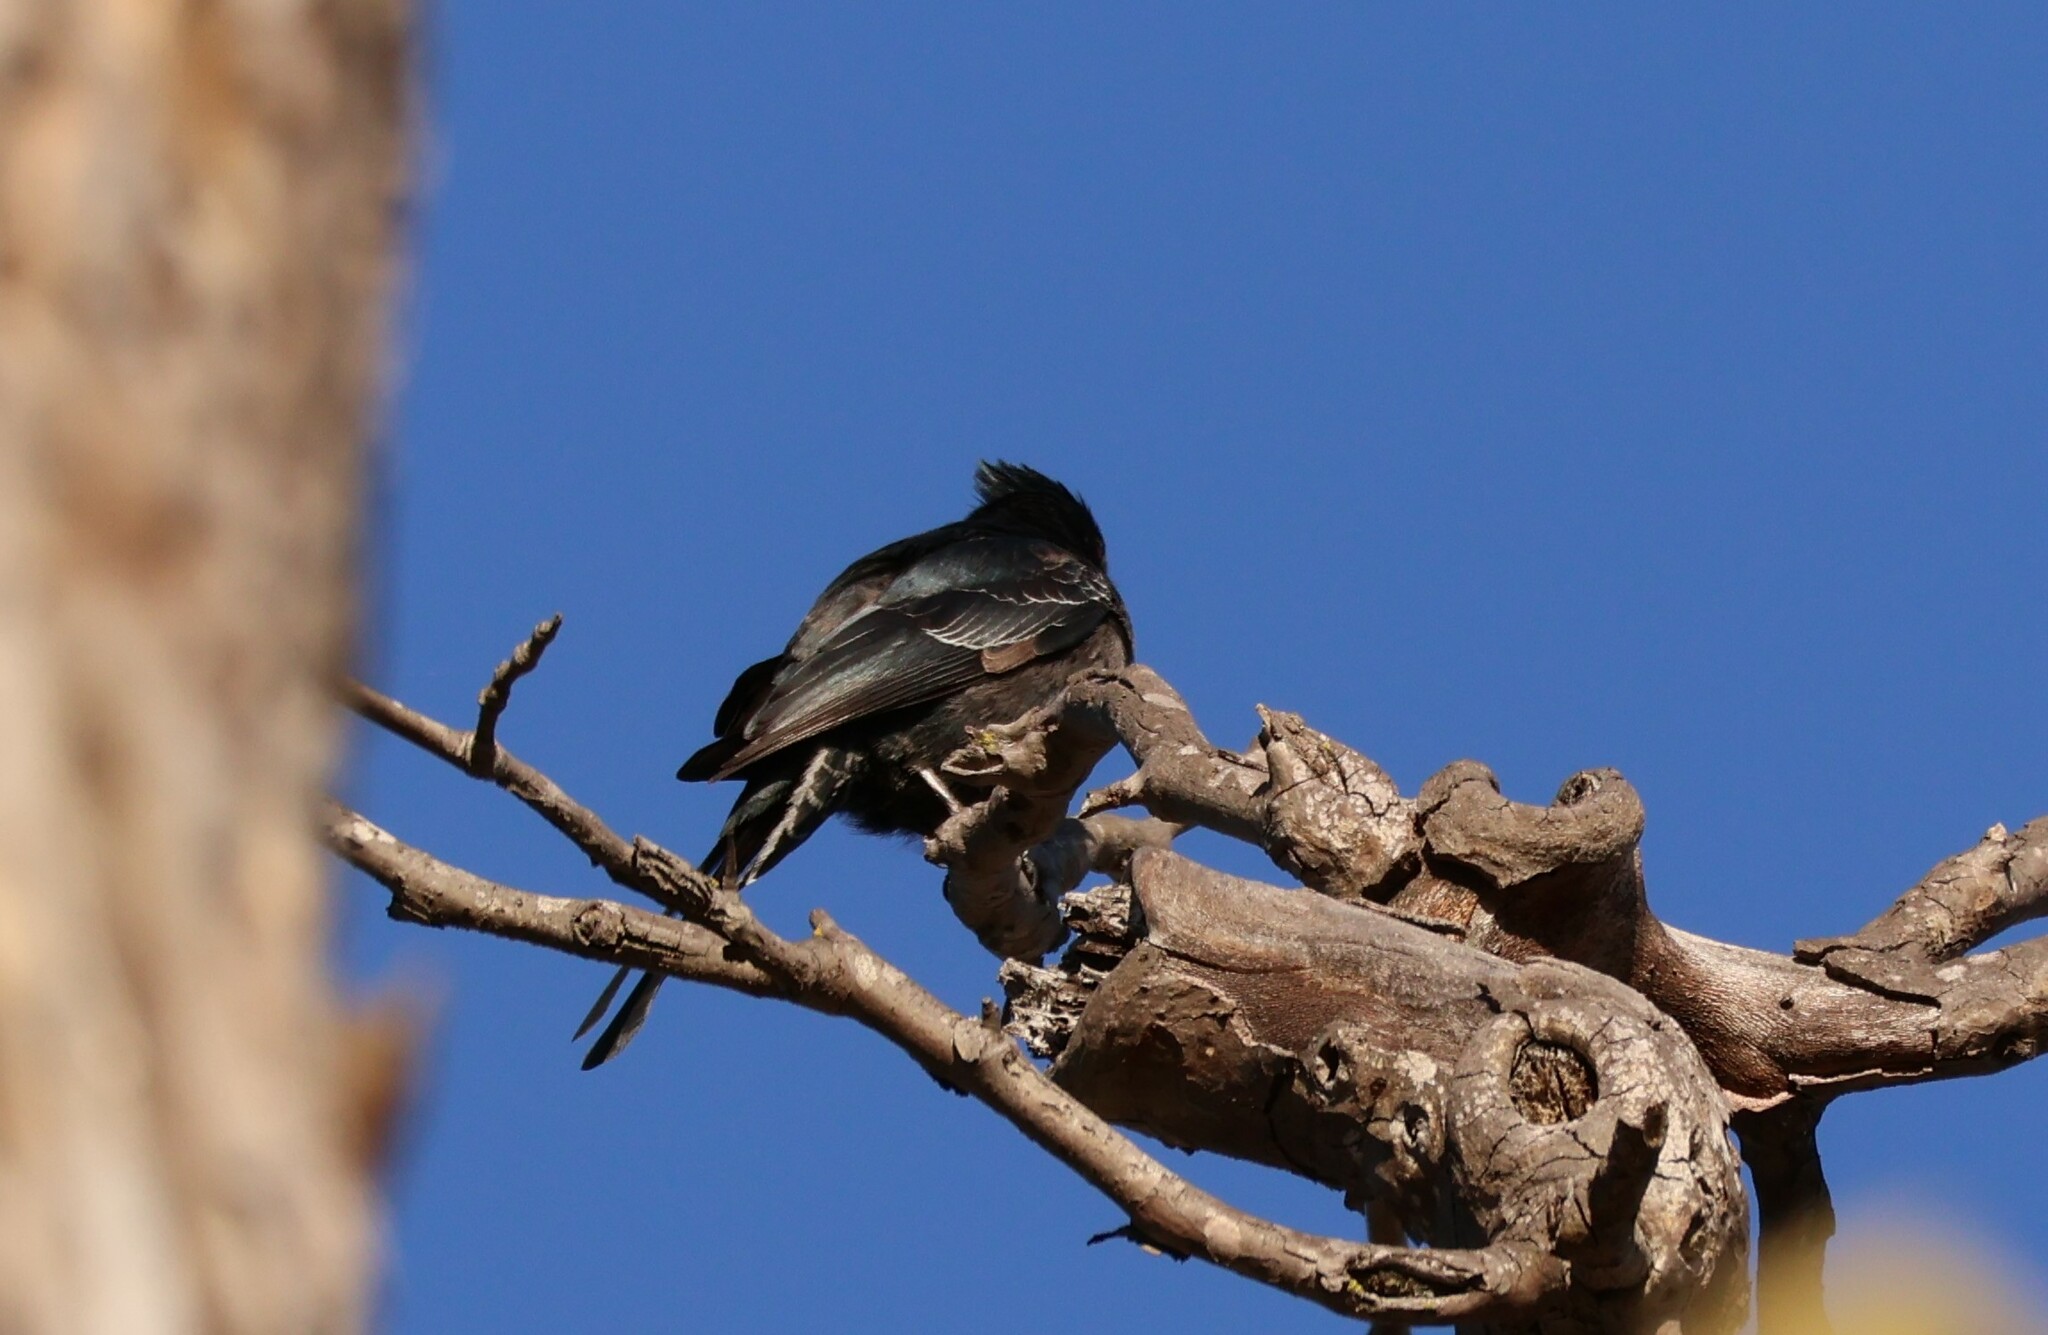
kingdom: Animalia
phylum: Chordata
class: Aves
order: Passeriformes
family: Ptilogonatidae
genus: Phainopepla
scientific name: Phainopepla nitens
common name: Phainopepla
